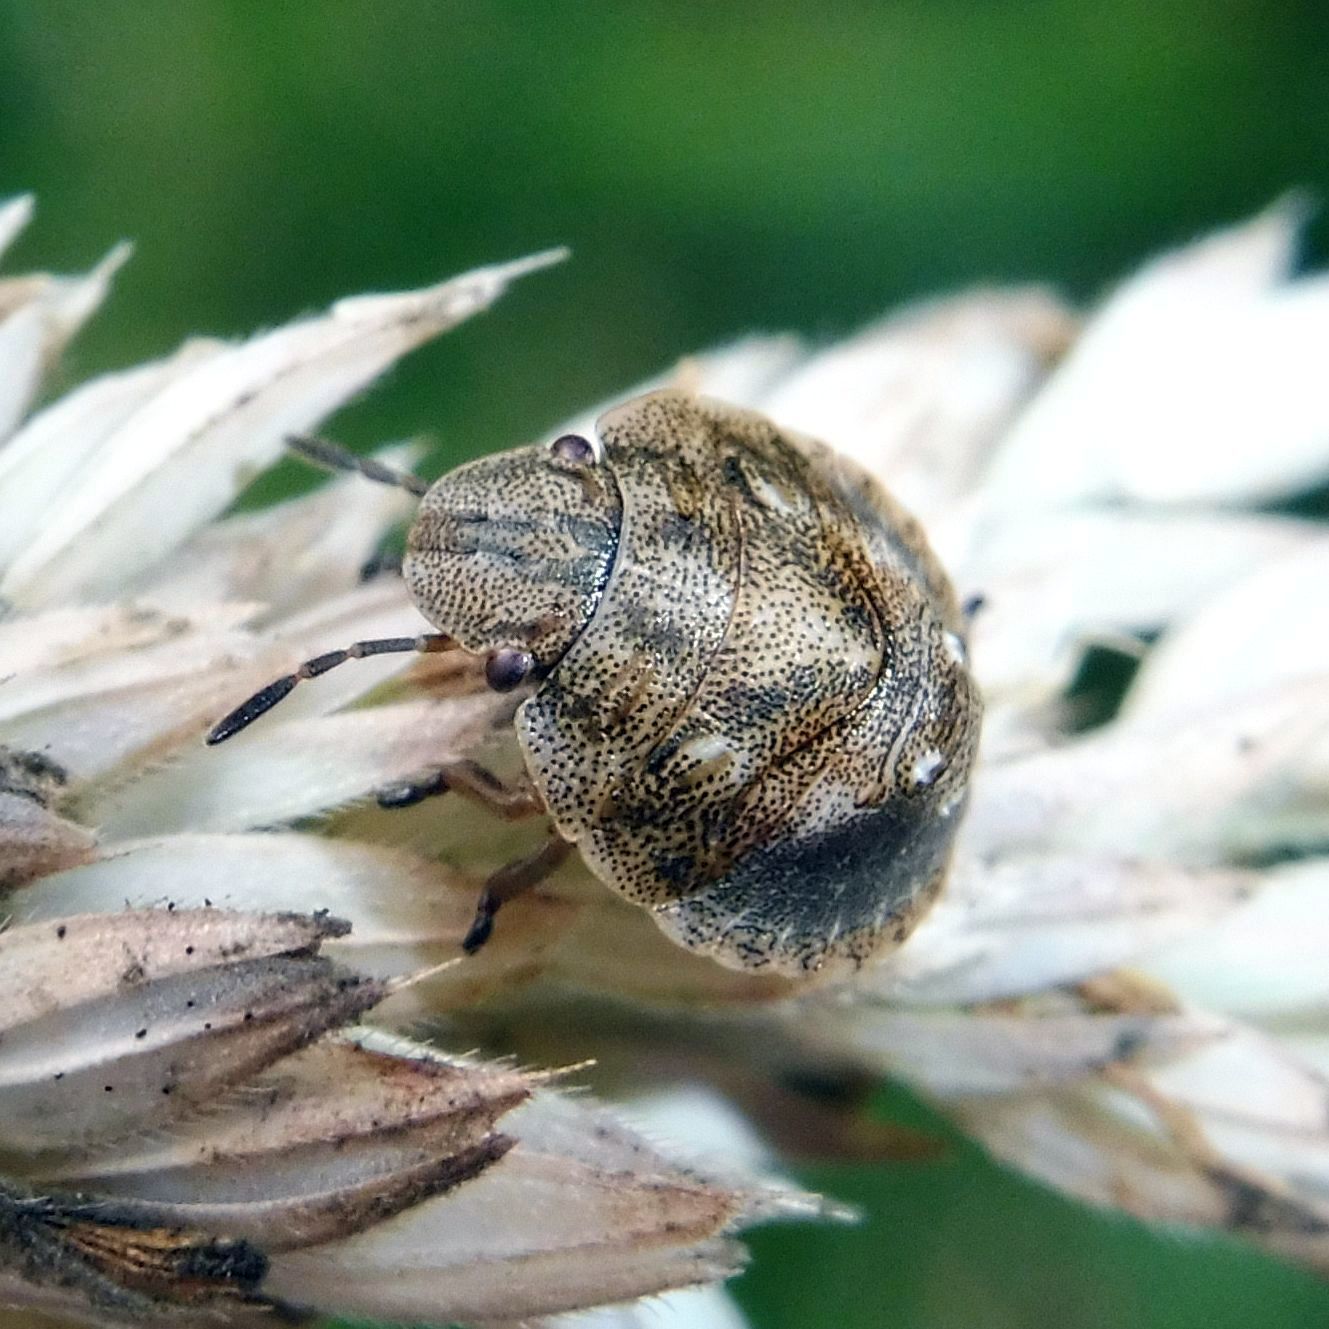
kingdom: Animalia
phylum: Arthropoda
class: Insecta
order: Hemiptera
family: Scutelleridae
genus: Eurygaster
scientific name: Eurygaster testudinaria
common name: Tortoise bug
